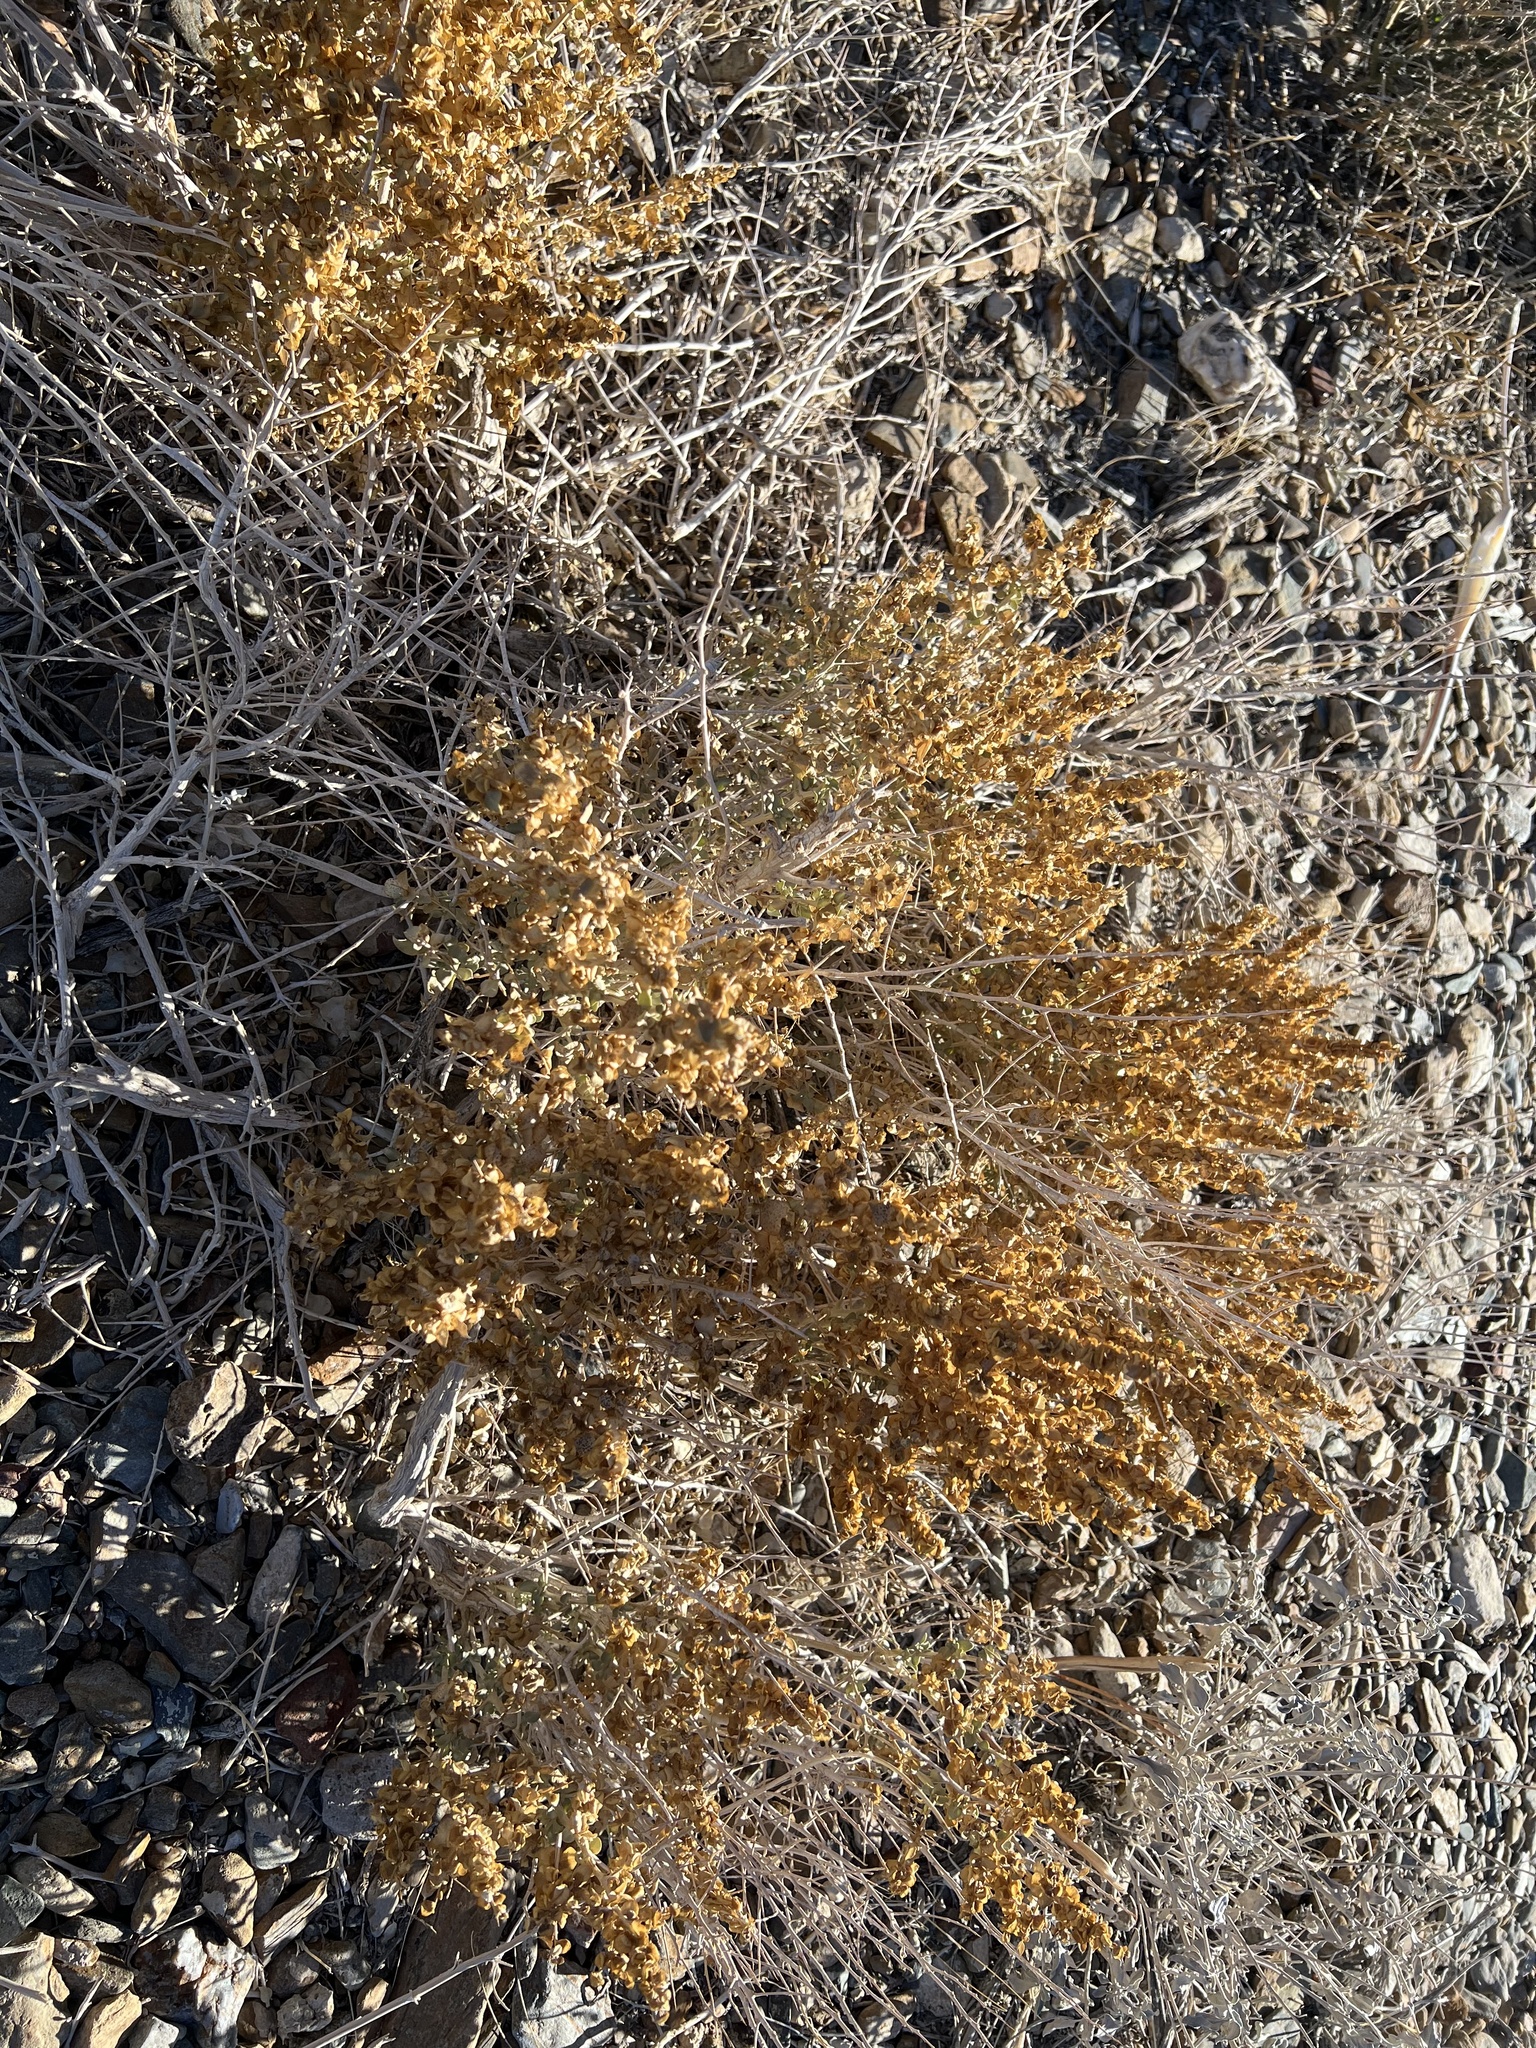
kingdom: Plantae
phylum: Tracheophyta
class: Magnoliopsida
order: Caryophyllales
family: Amaranthaceae
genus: Atriplex
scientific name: Atriplex confertifolia
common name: Shadscale
